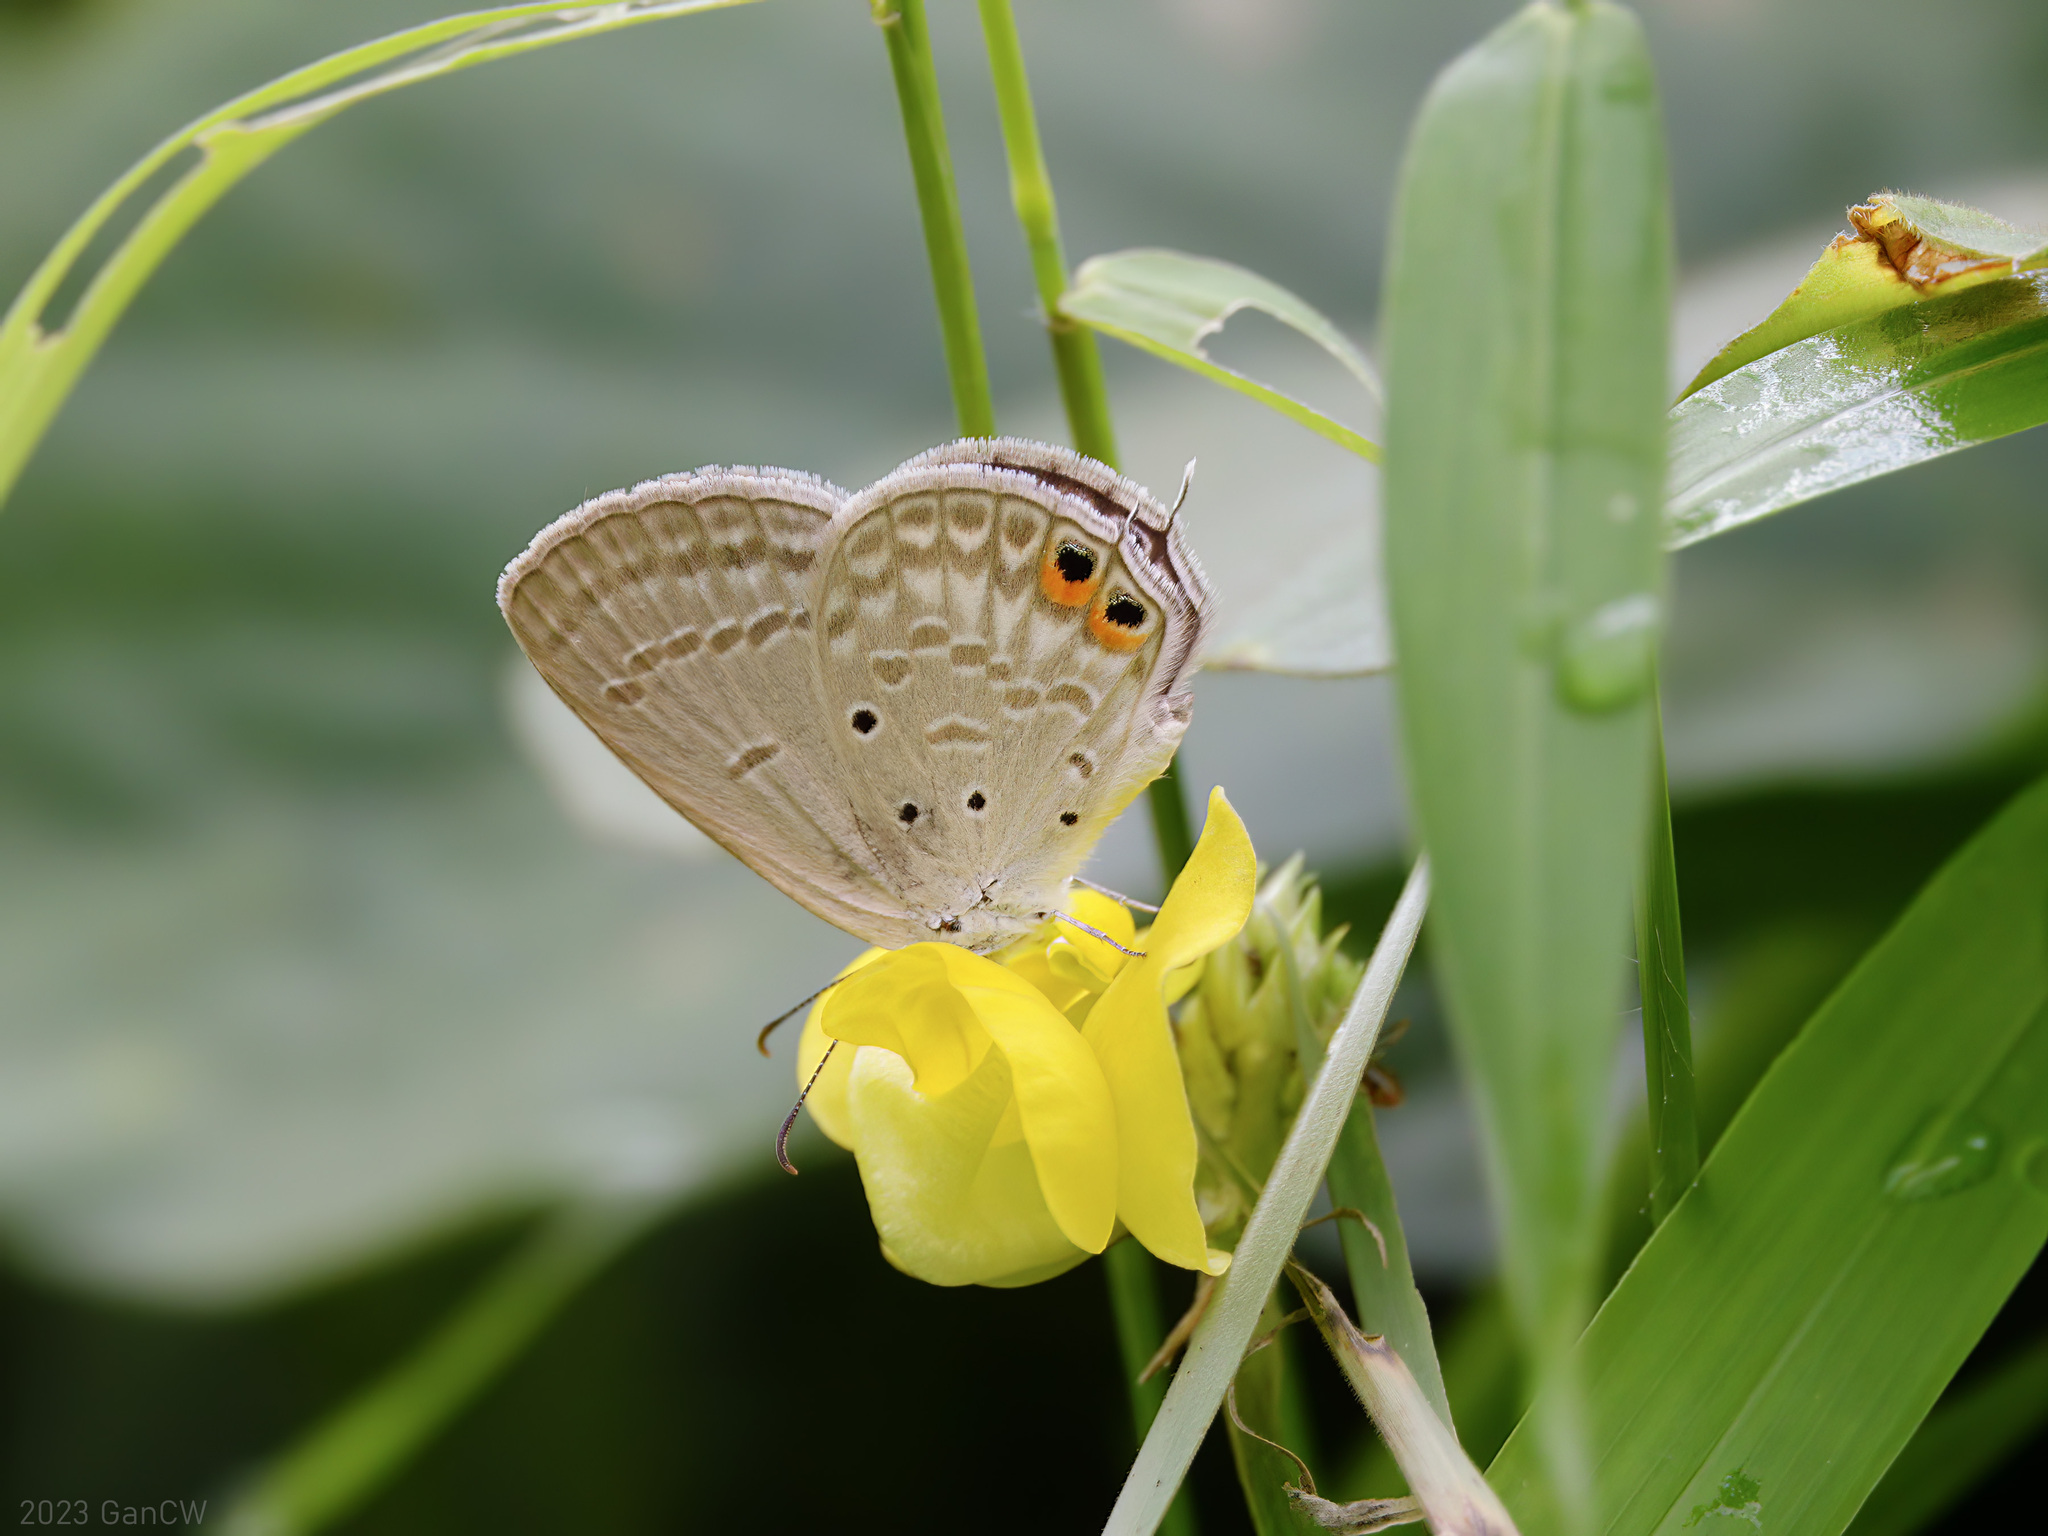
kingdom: Animalia
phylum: Arthropoda
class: Insecta
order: Lepidoptera
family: Lycaenidae
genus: Euchrysops
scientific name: Euchrysops cnejus
